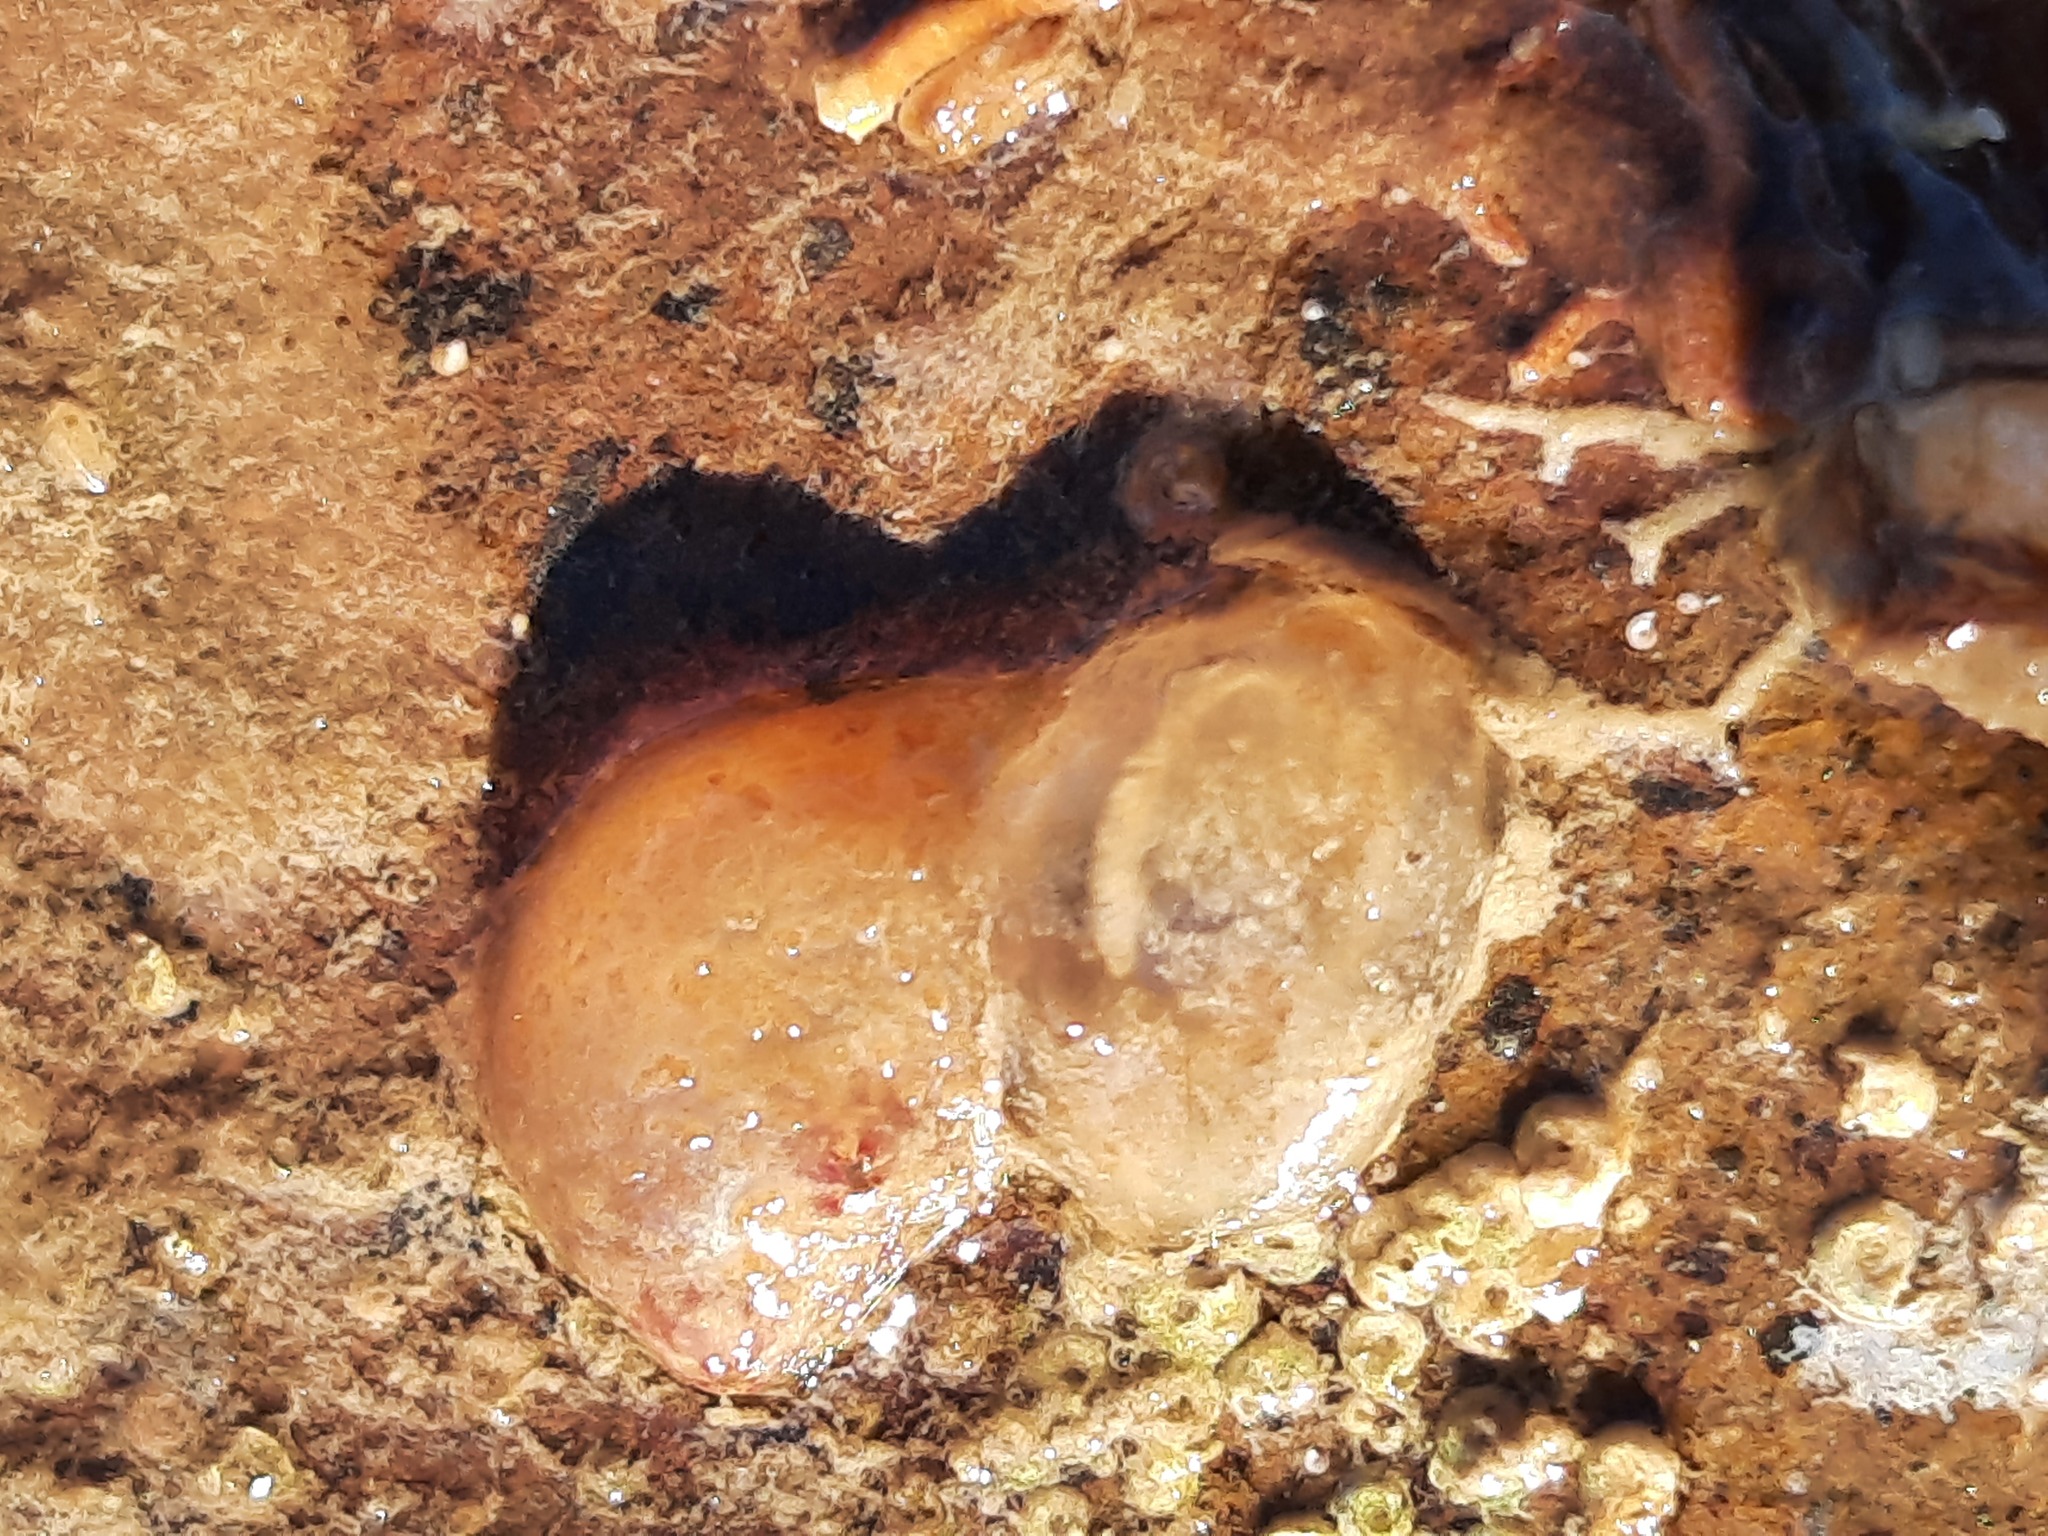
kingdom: Animalia
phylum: Chordata
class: Ascidiacea
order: Phlebobranchia
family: Corellidae
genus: Corella
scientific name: Corella eumyota
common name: Orange-tipped sea squirt
